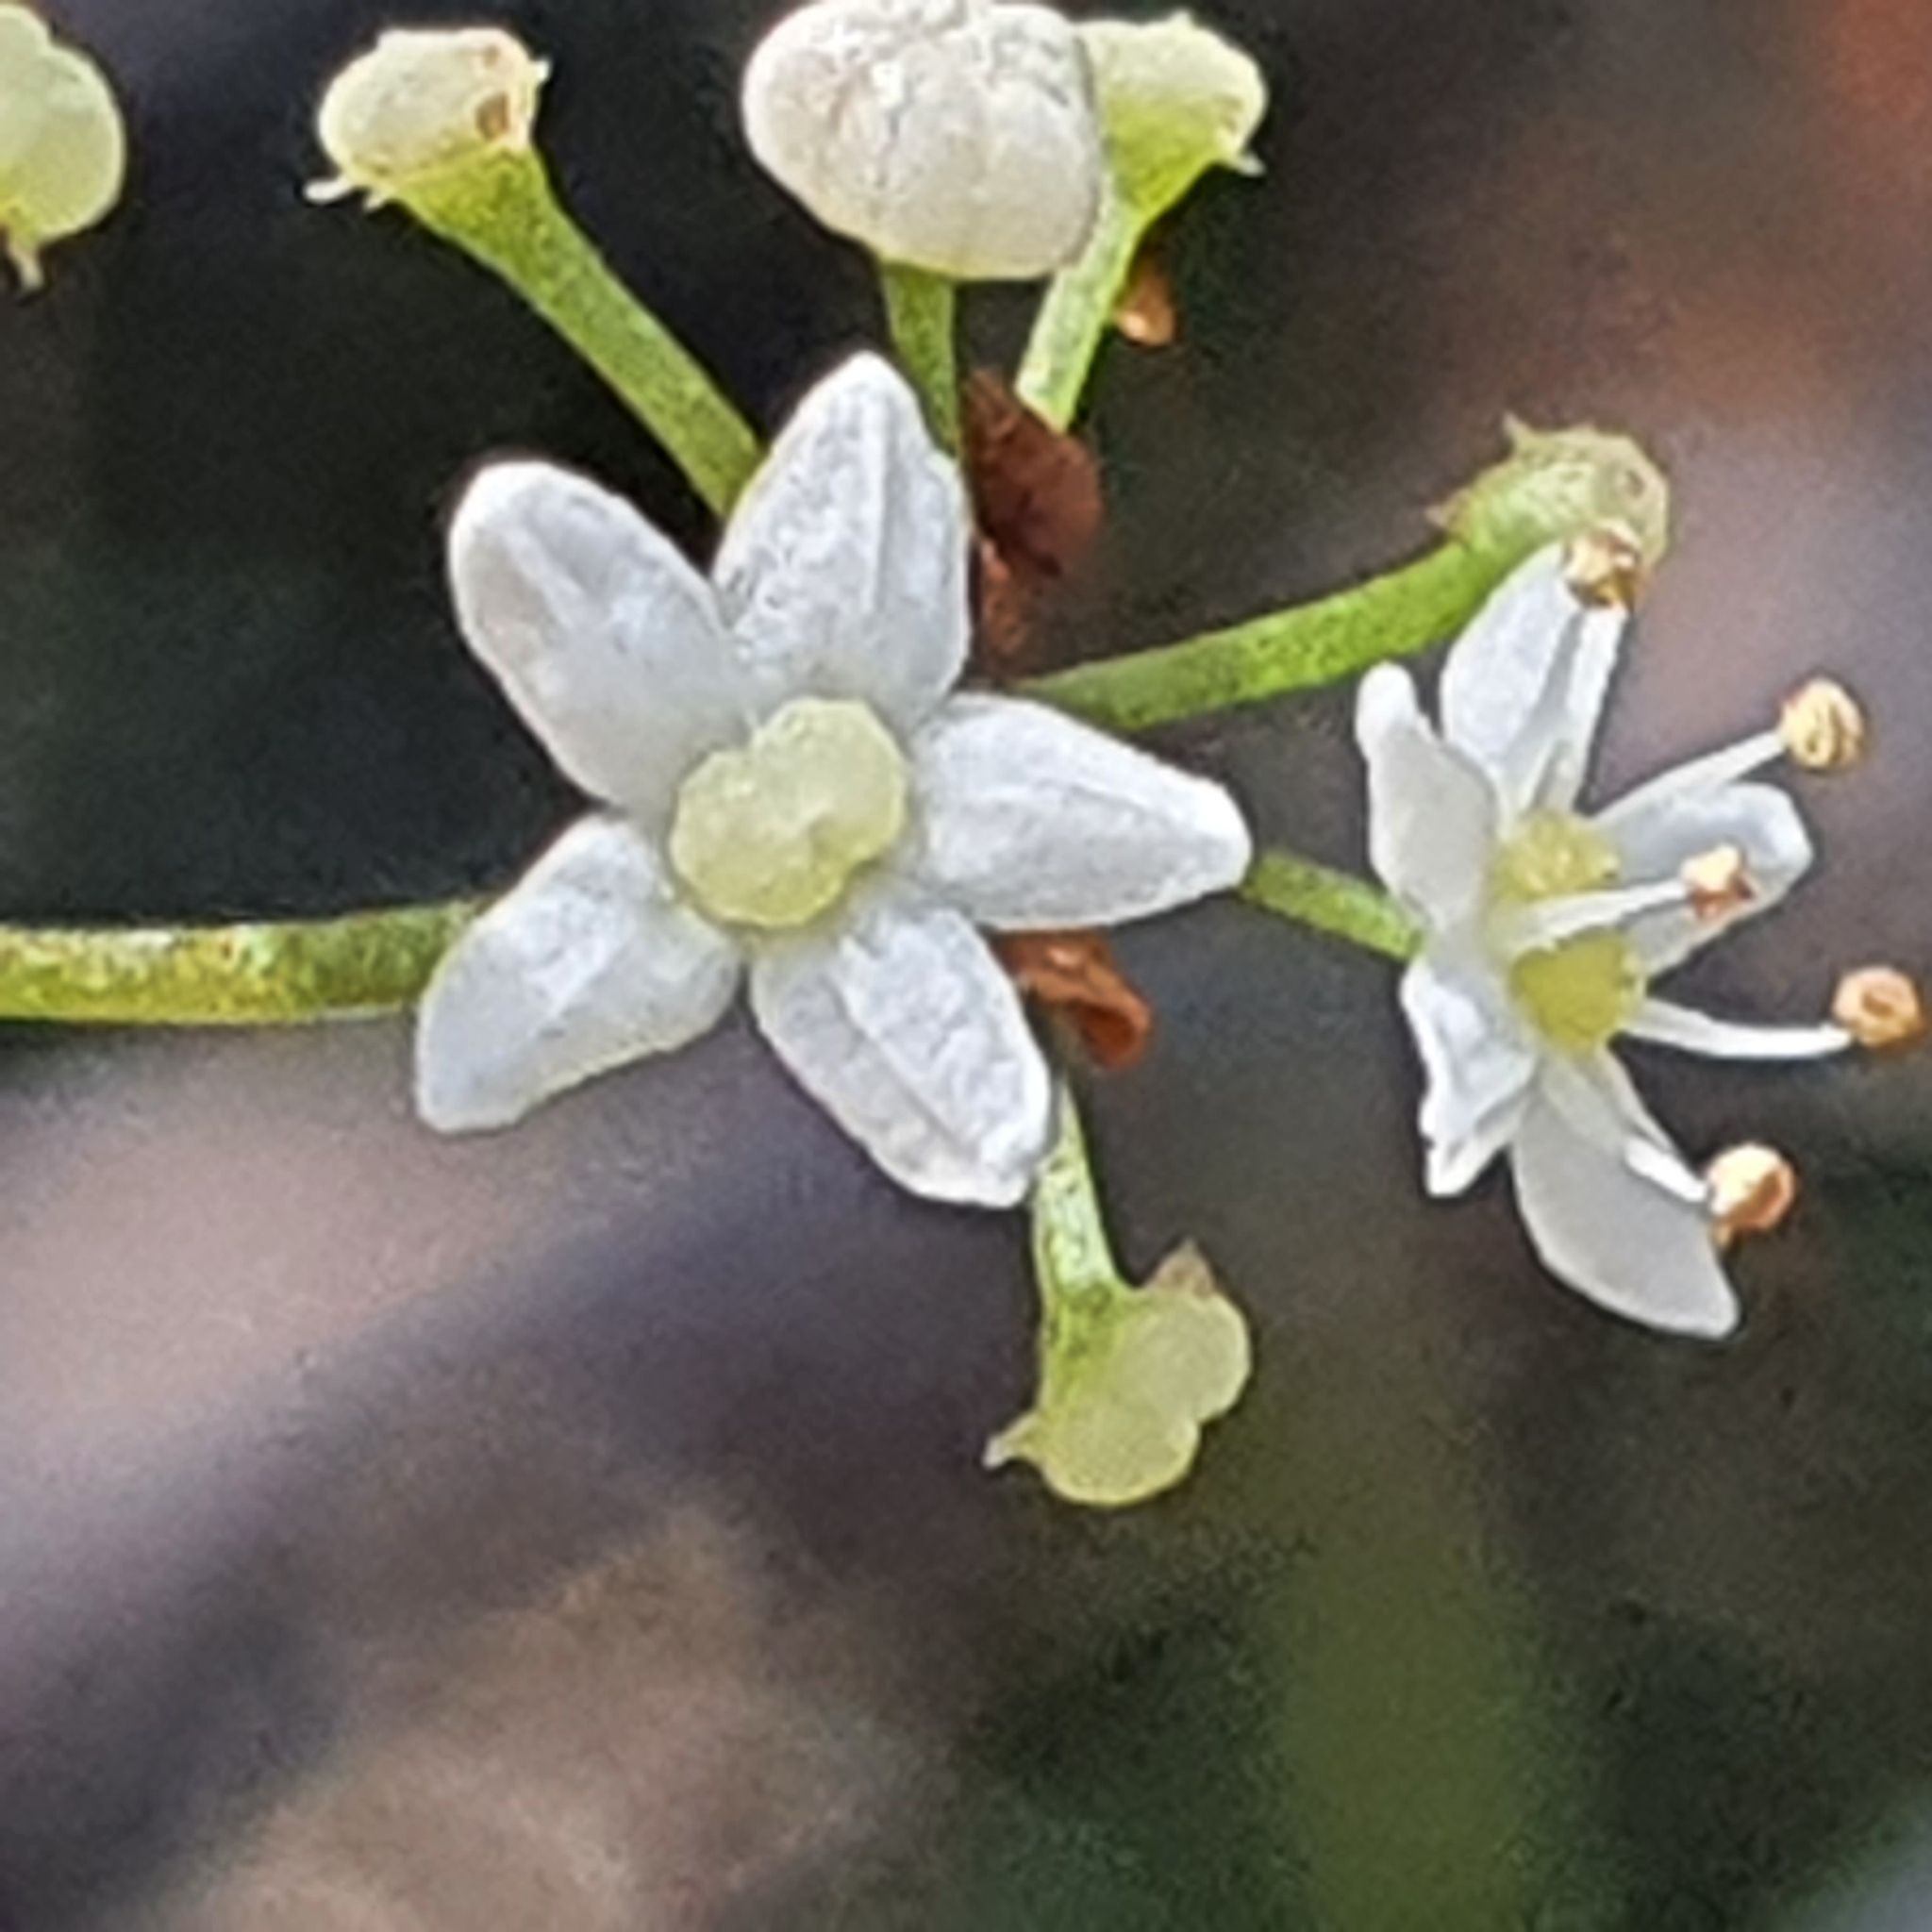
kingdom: Plantae
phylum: Tracheophyta
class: Magnoliopsida
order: Apiales
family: Apiaceae
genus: Platysace
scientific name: Platysace linearifolia
